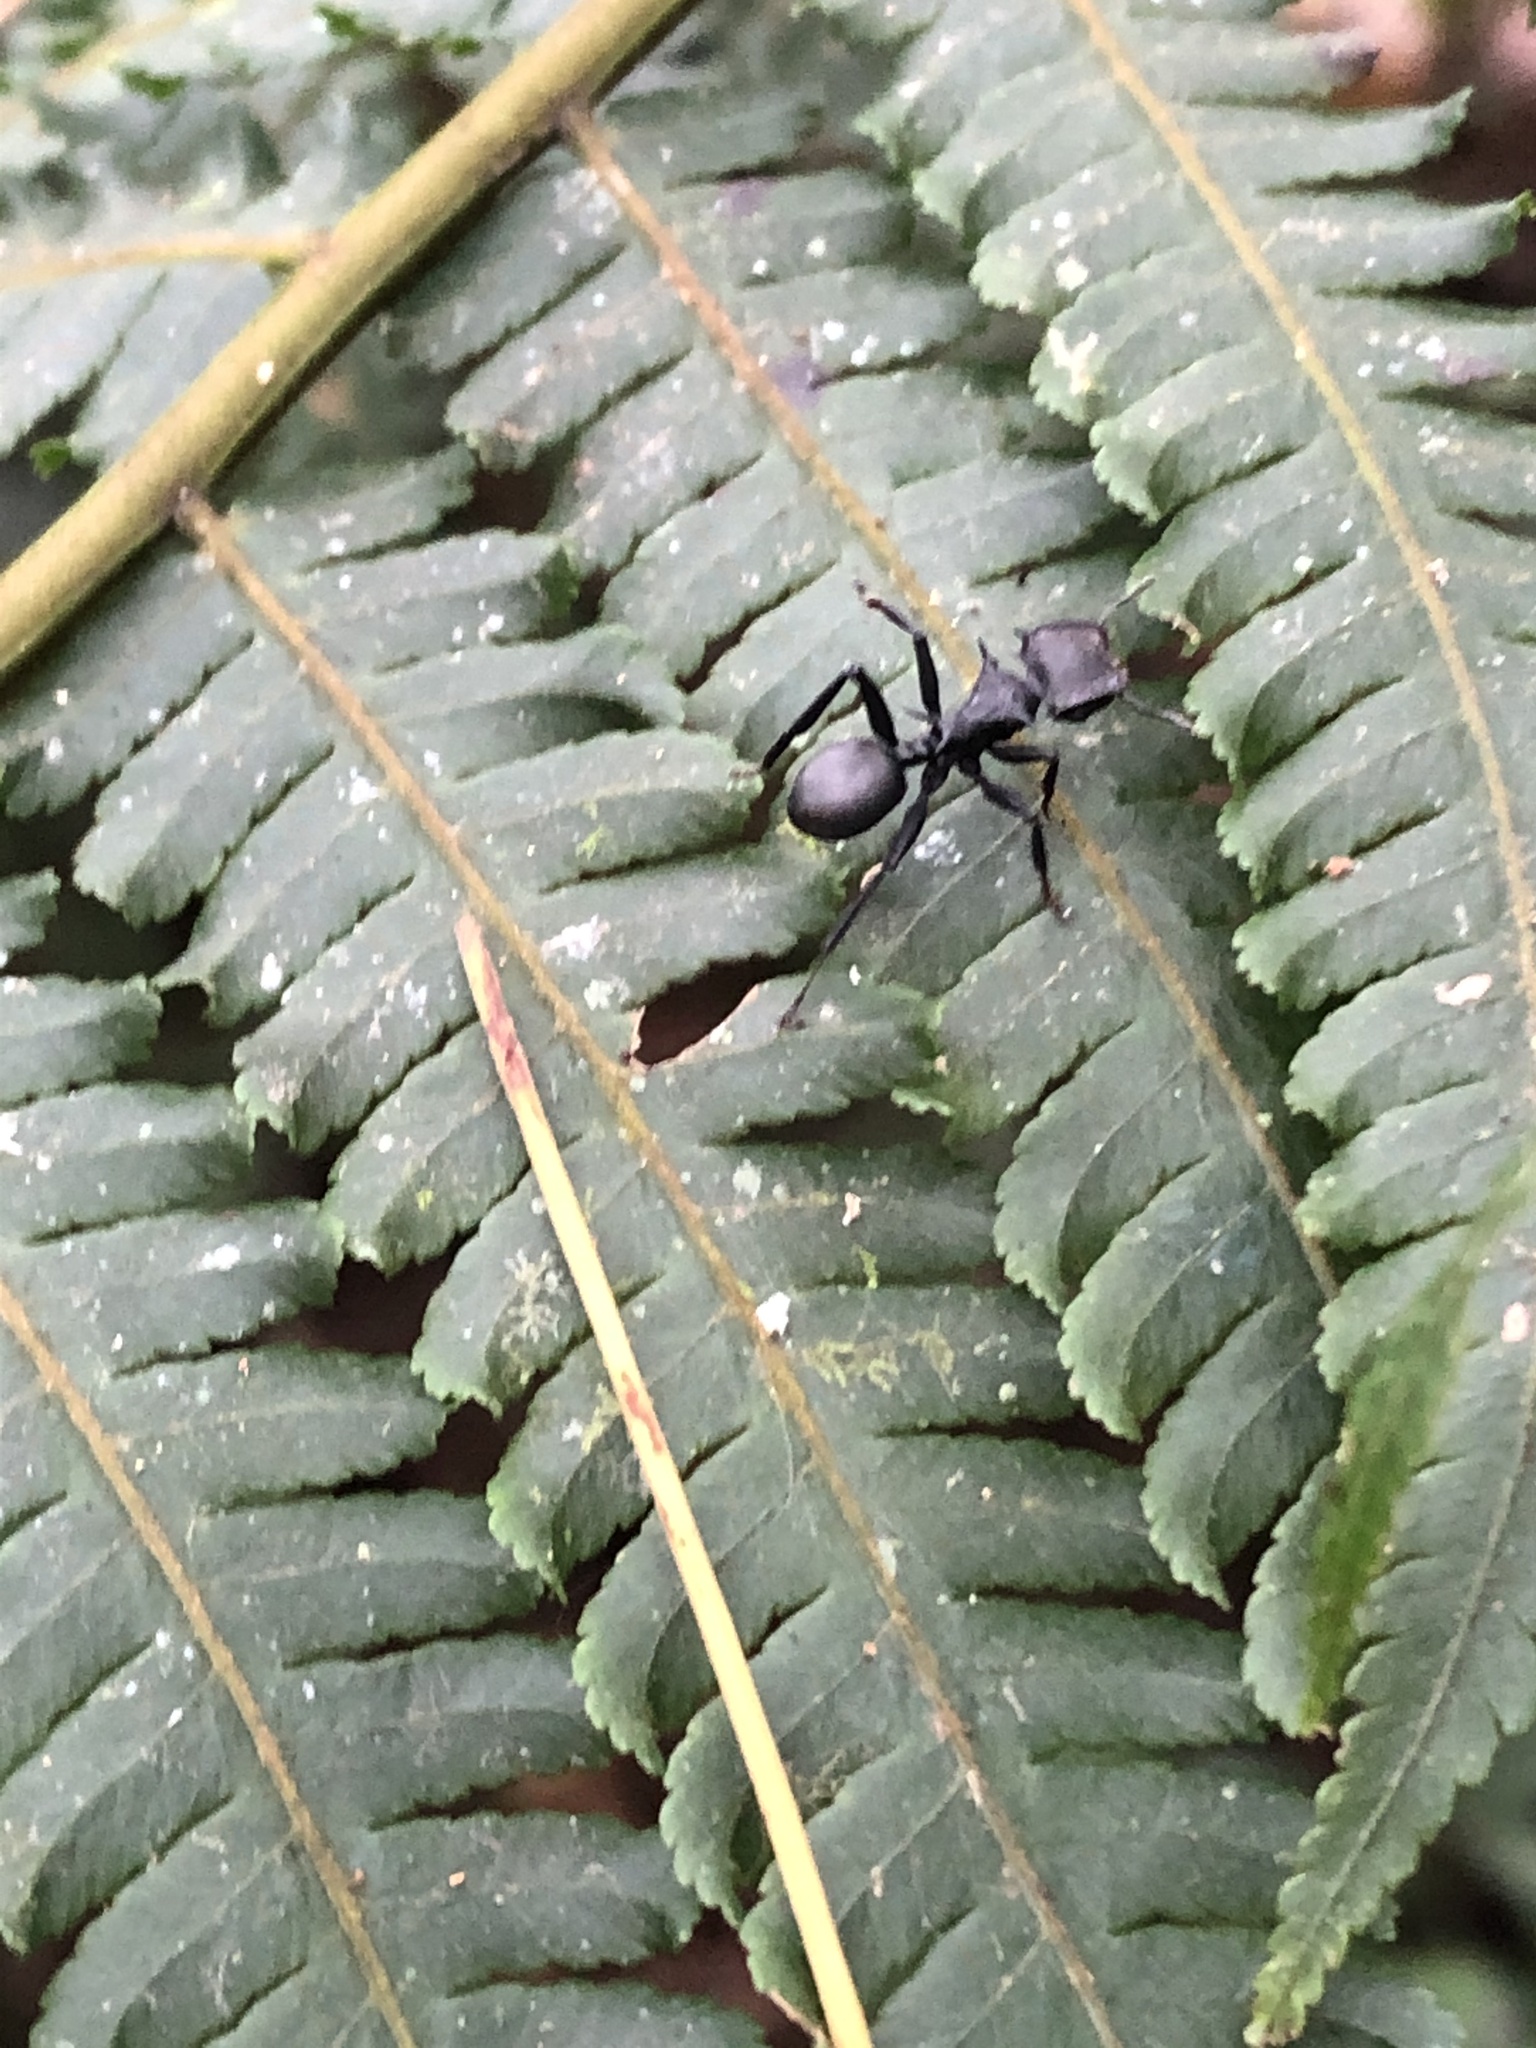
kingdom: Animalia
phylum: Arthropoda
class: Insecta
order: Hymenoptera
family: Formicidae
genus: Cephalotes
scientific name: Cephalotes atratus
